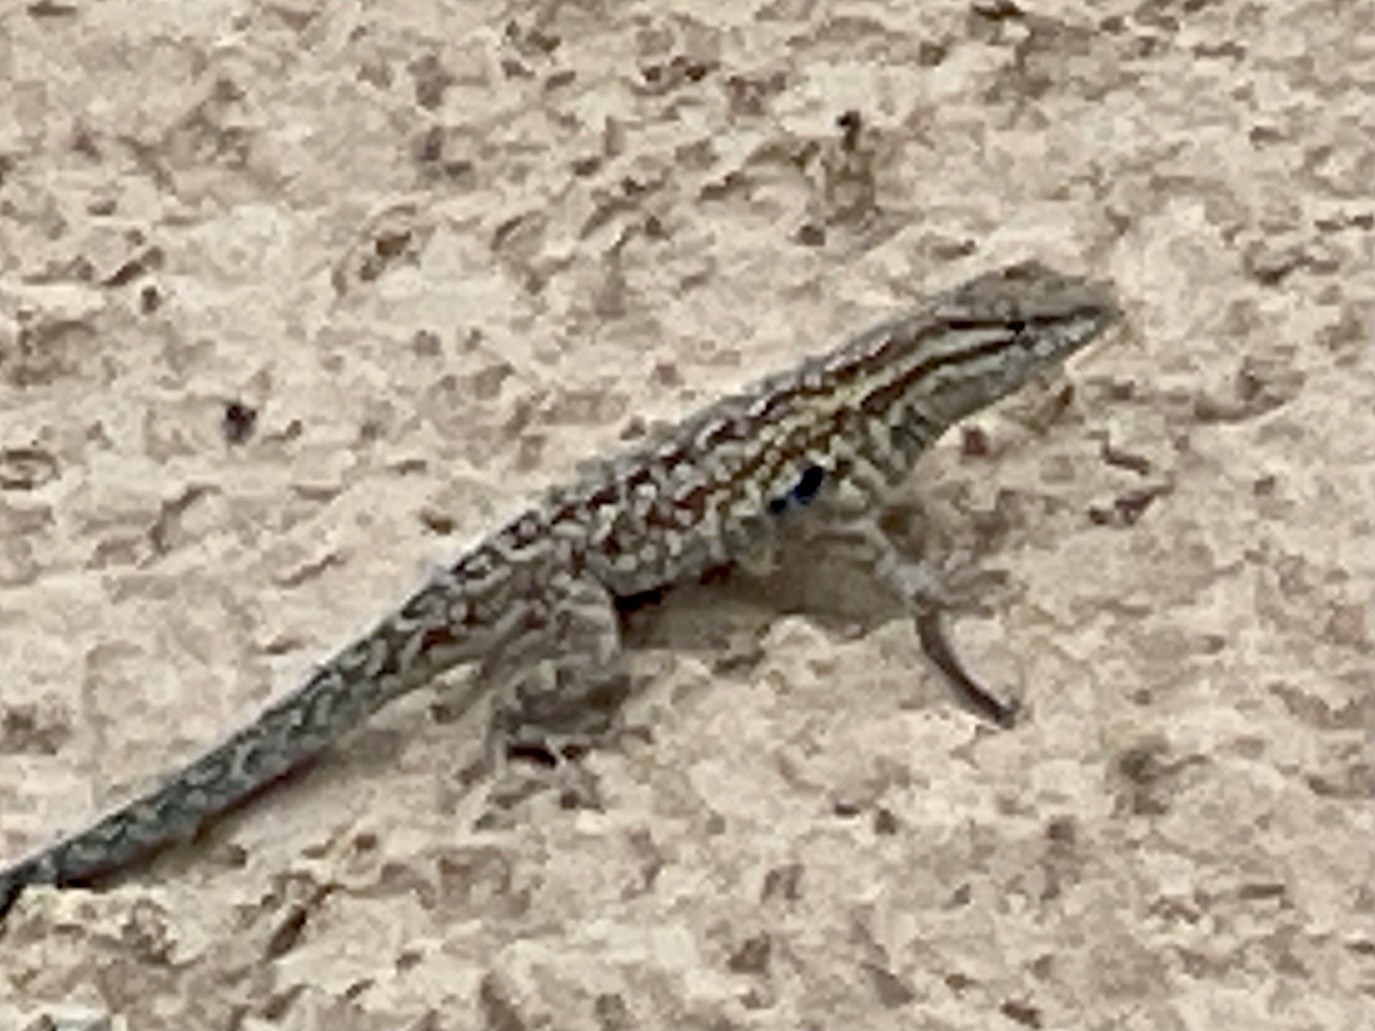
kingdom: Animalia
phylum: Chordata
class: Squamata
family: Phrynosomatidae
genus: Uta
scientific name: Uta stansburiana
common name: Side-blotched lizard
